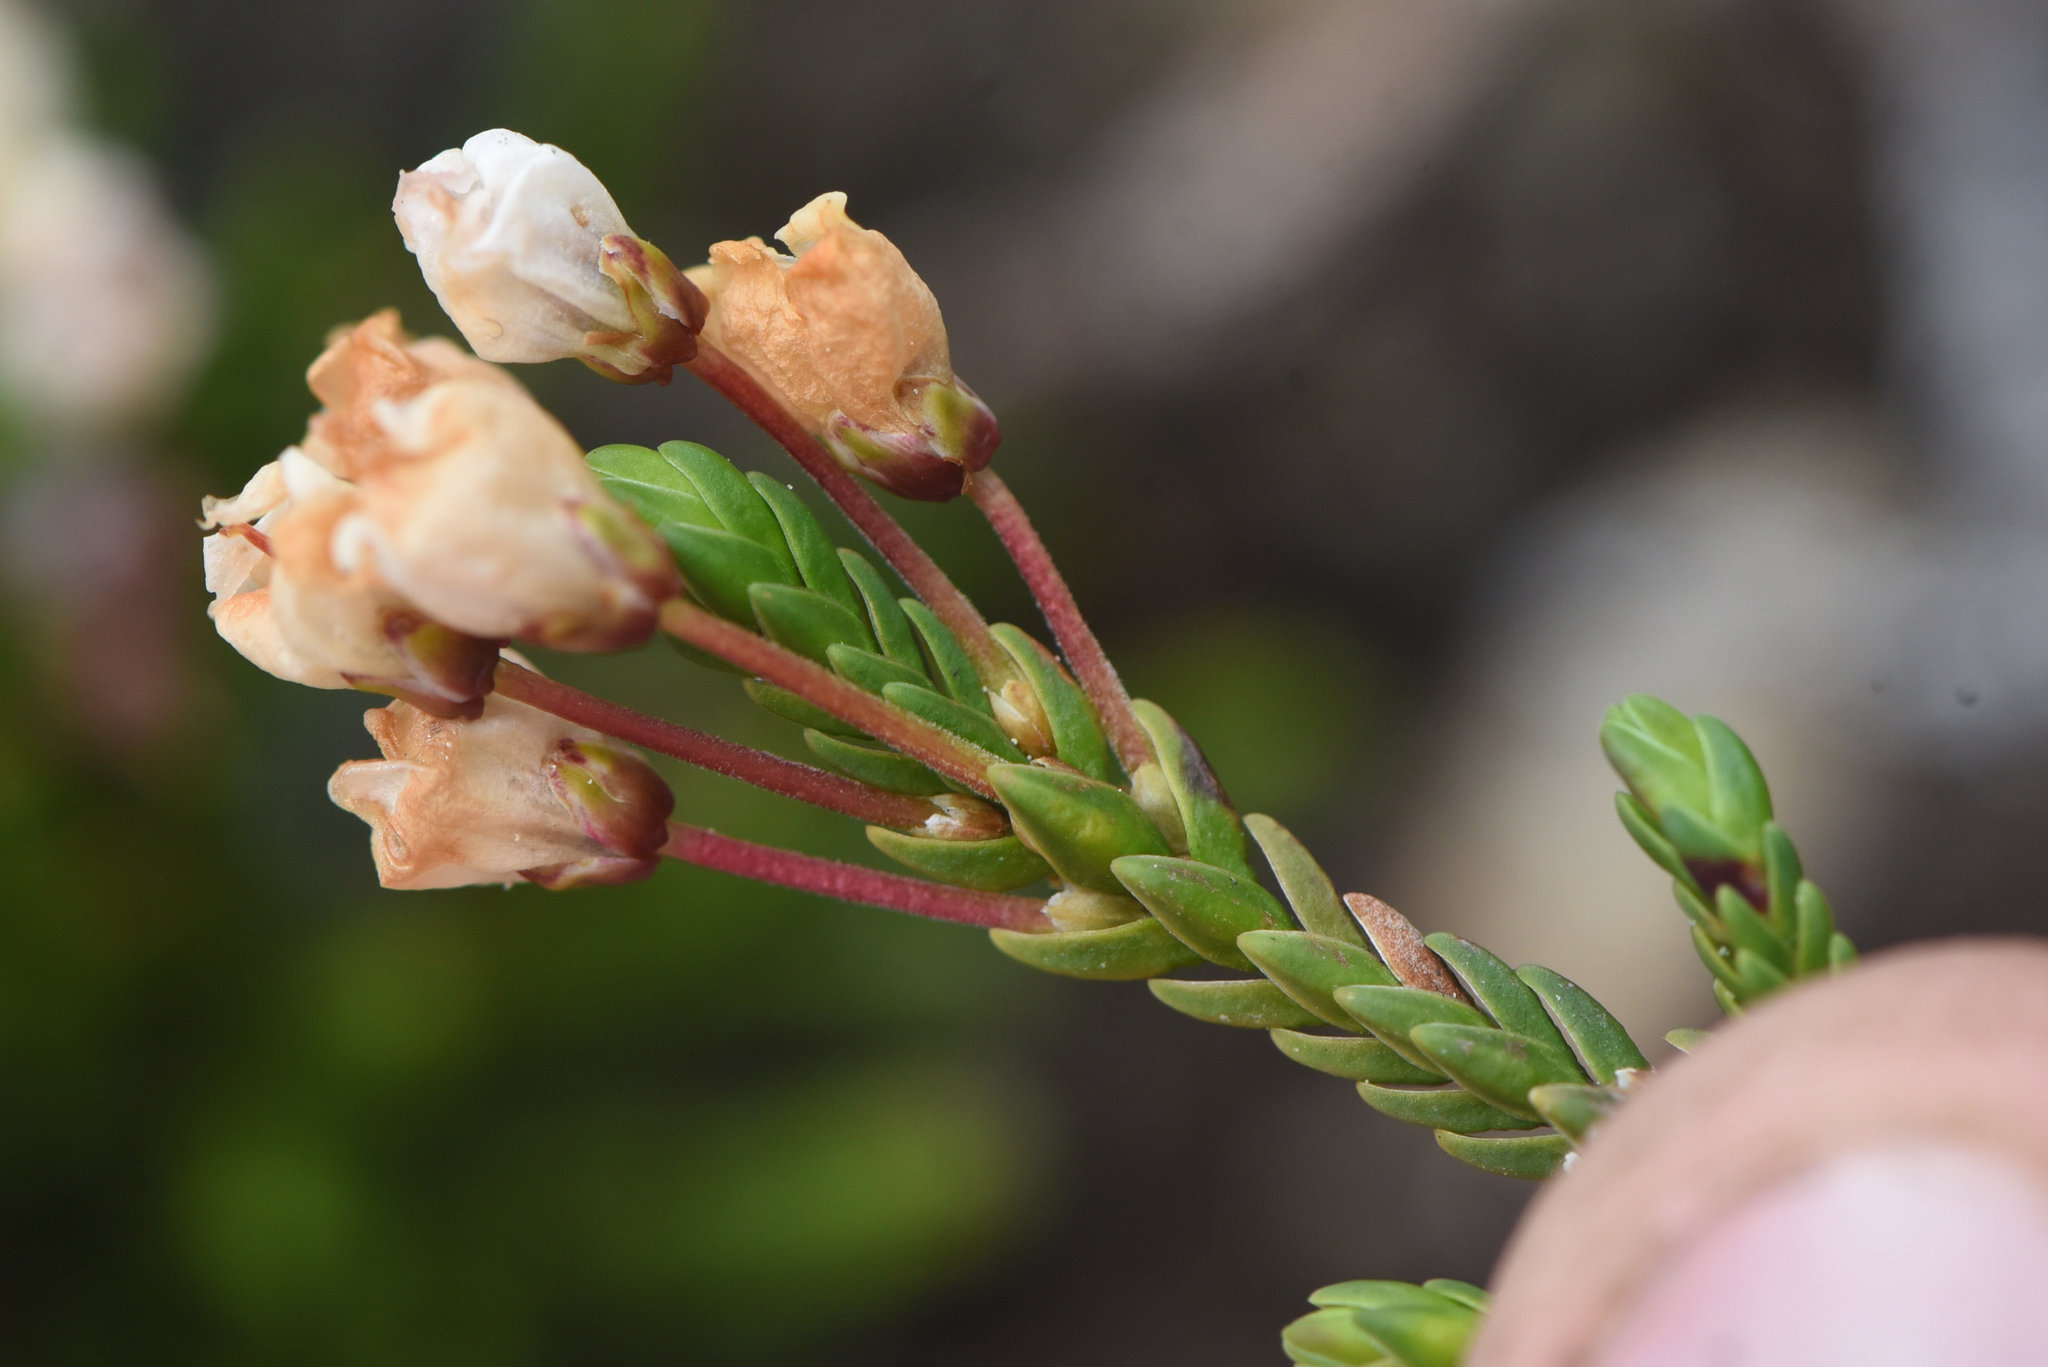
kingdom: Plantae
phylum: Tracheophyta
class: Magnoliopsida
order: Ericales
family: Ericaceae
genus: Cassiope
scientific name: Cassiope mertensiana
